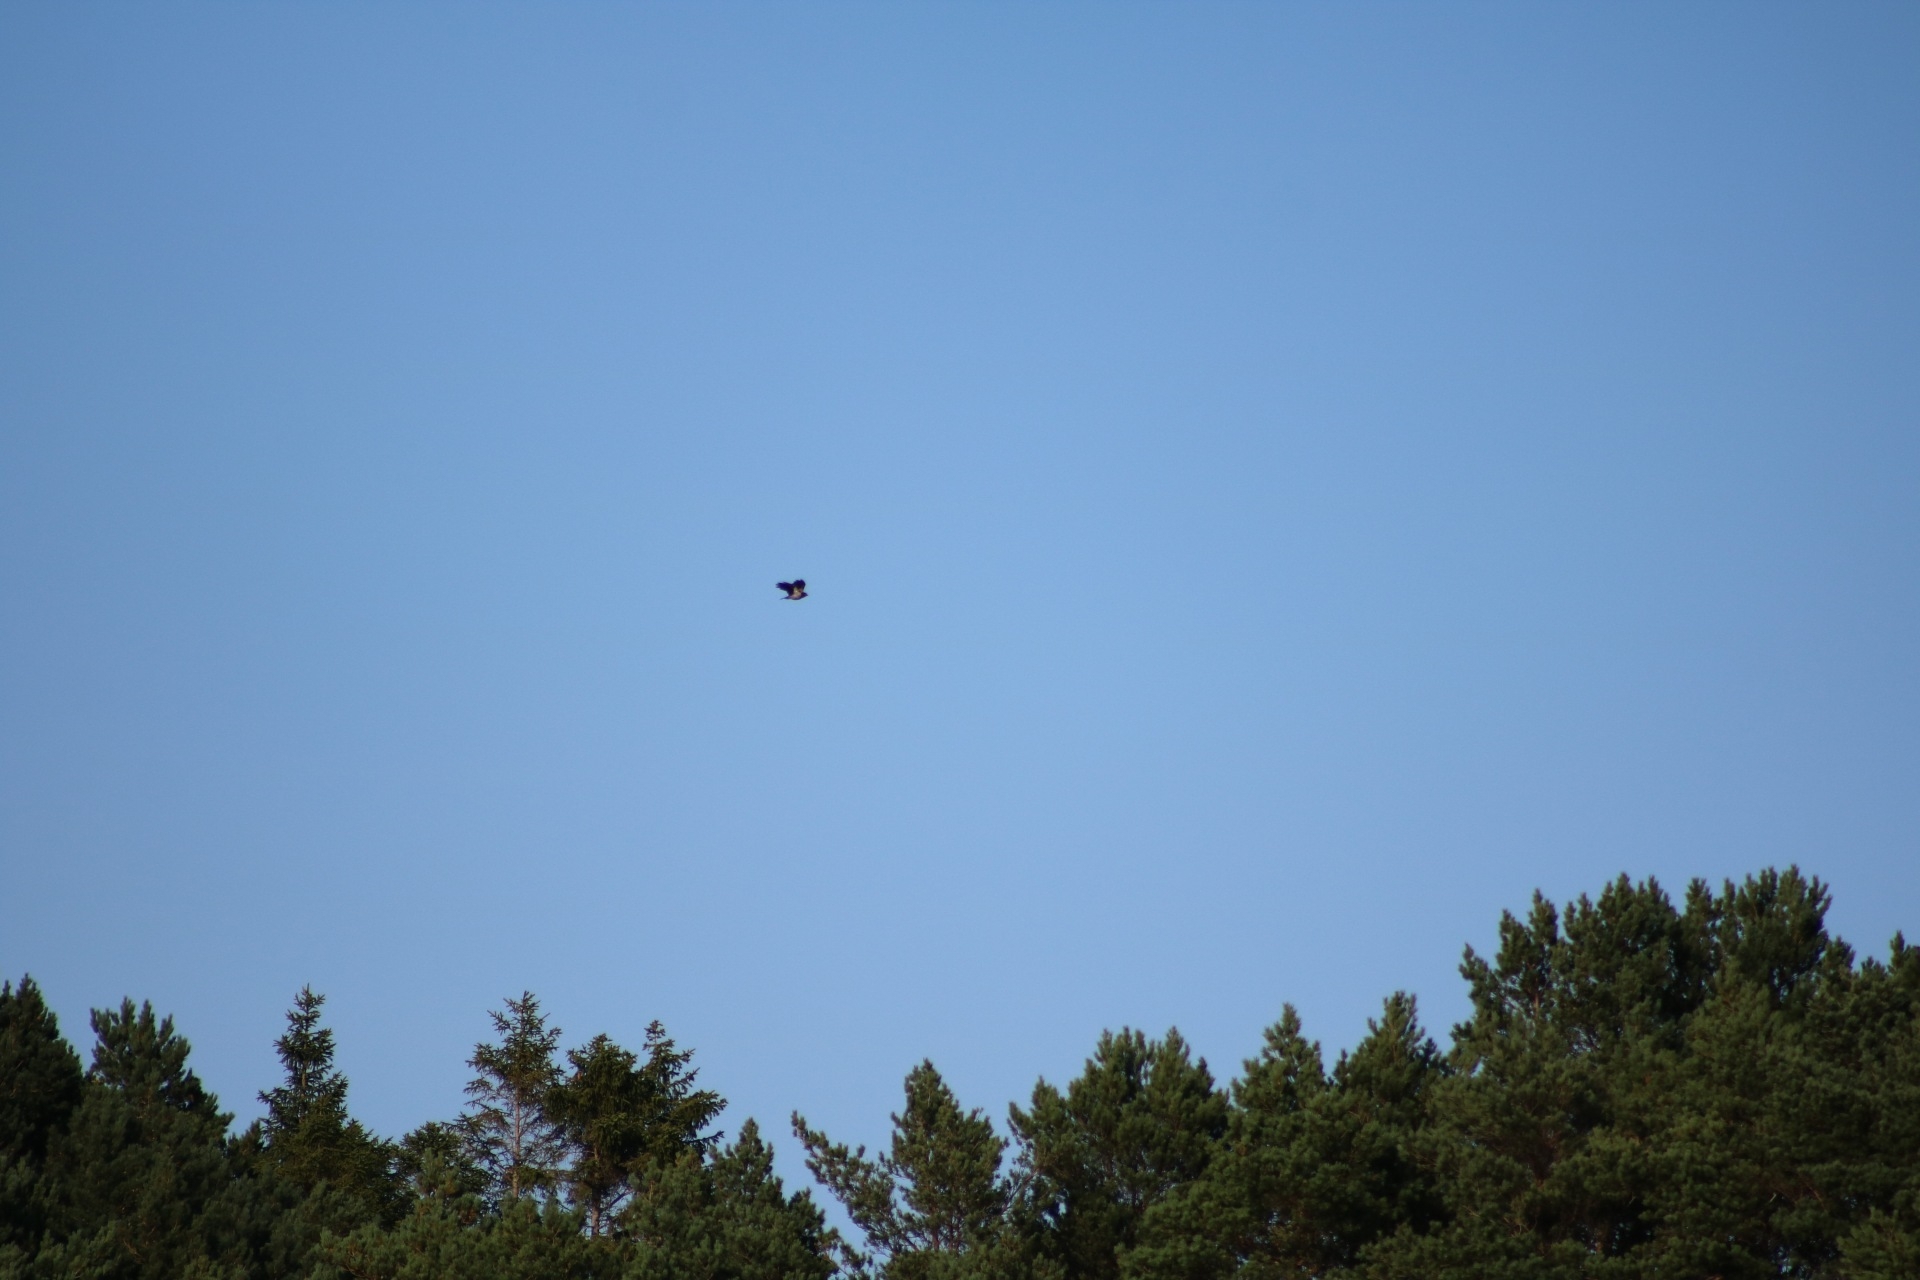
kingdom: Animalia
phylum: Chordata
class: Aves
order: Passeriformes
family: Corvidae
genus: Corvus
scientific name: Corvus cornix
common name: Hooded crow
